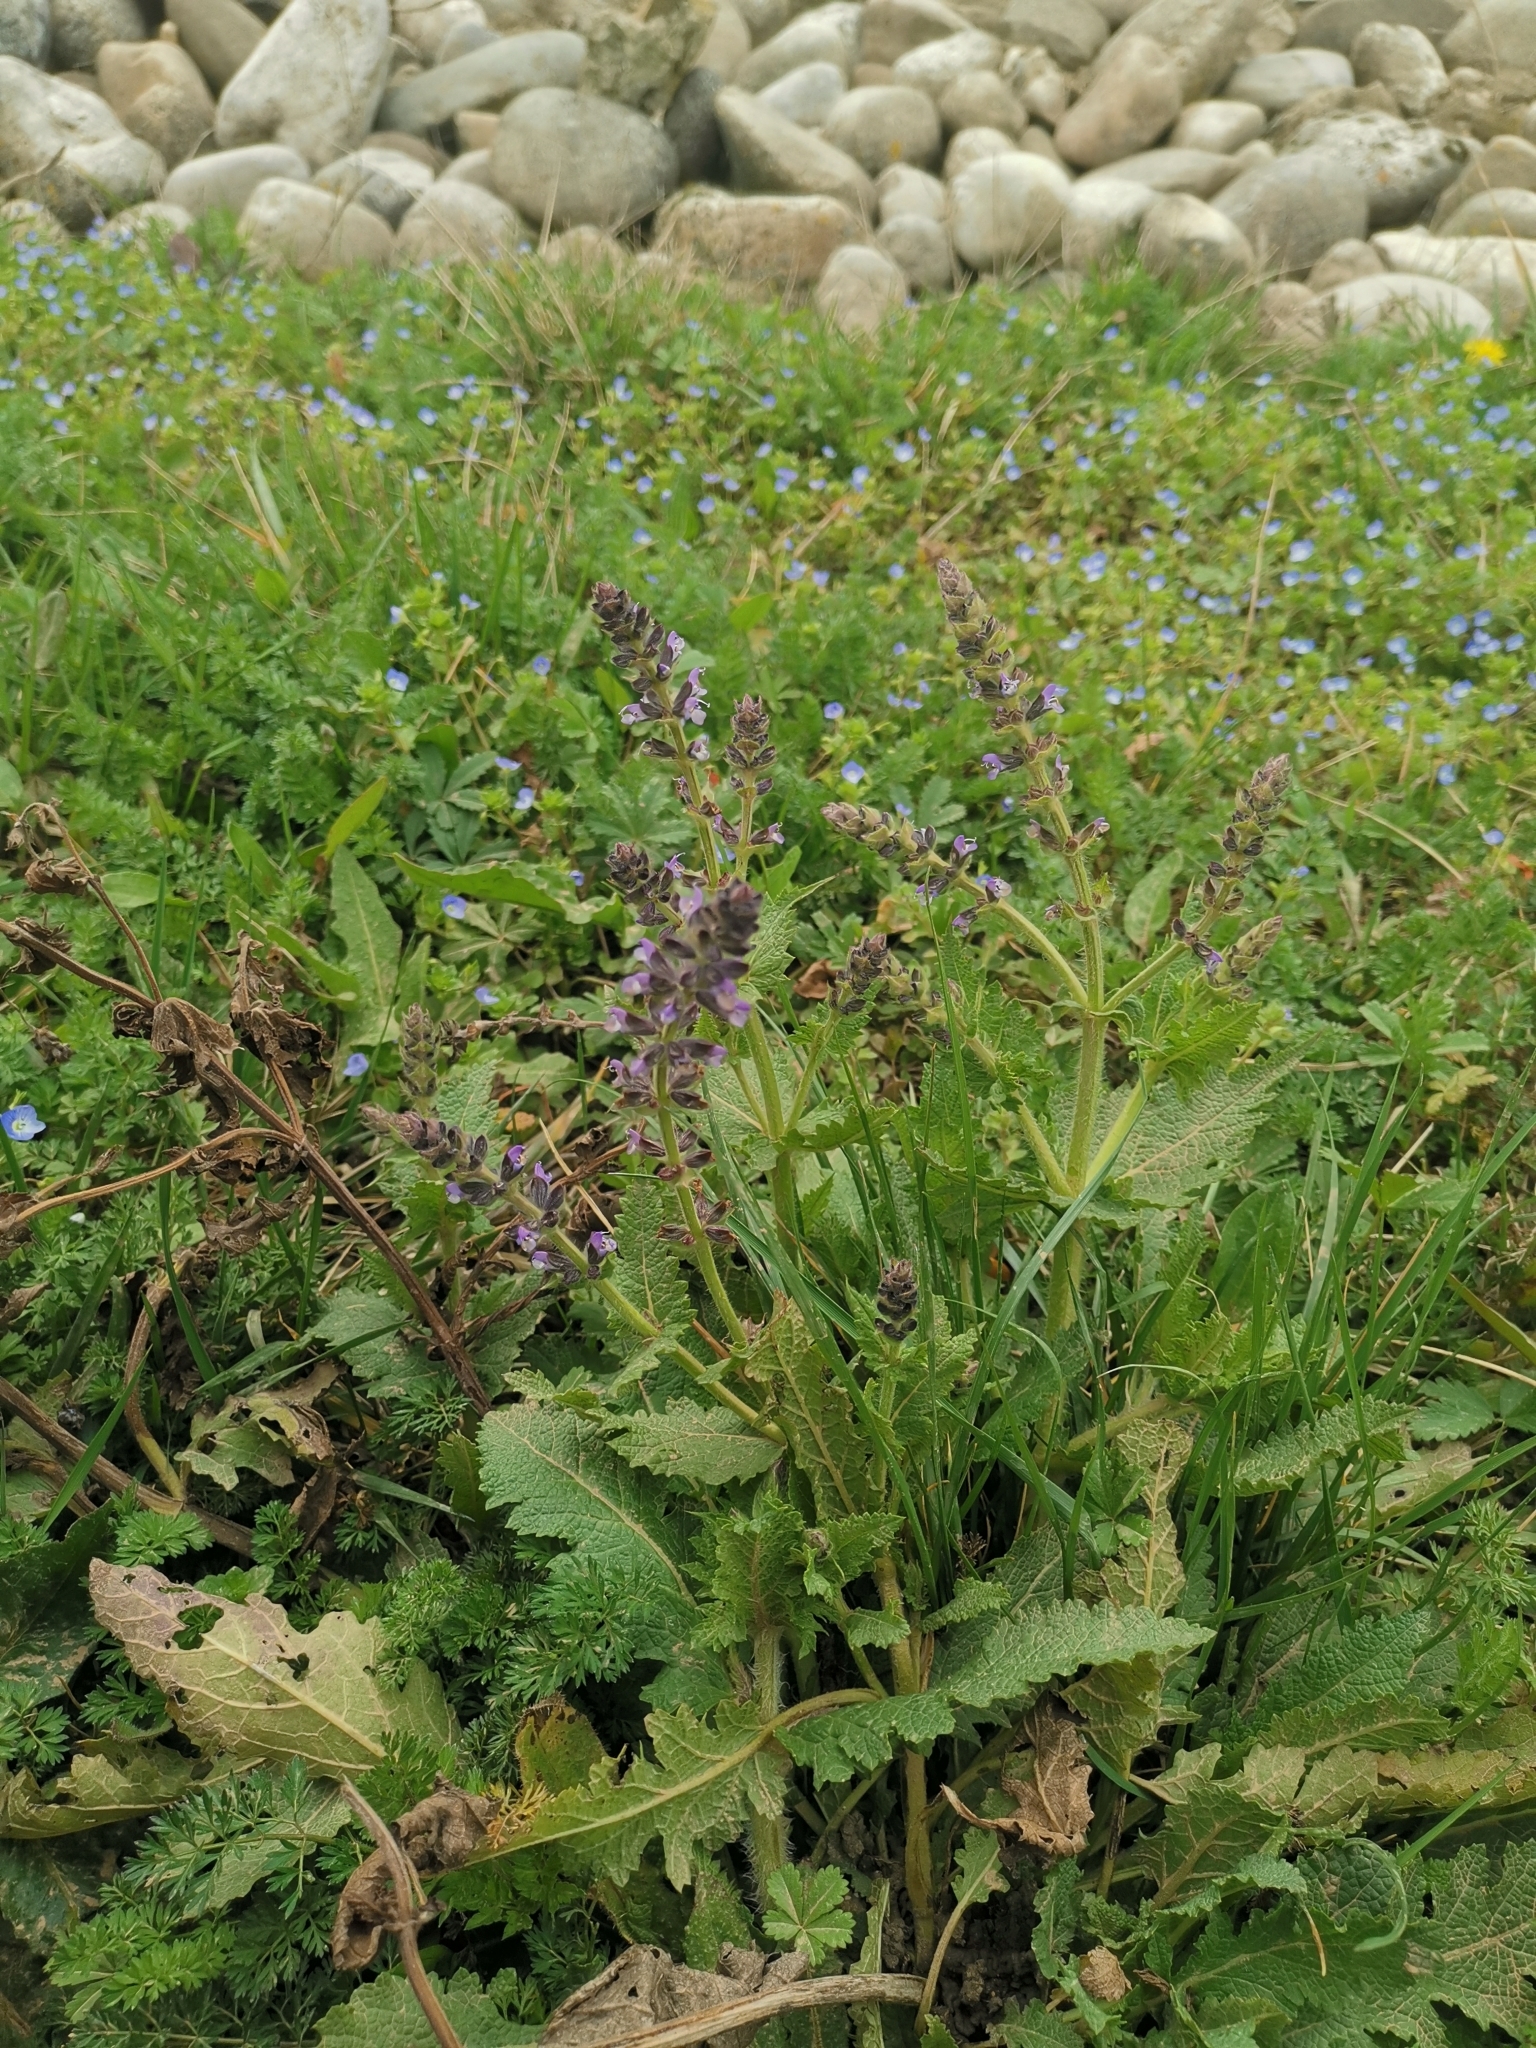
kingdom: Plantae
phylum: Tracheophyta
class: Magnoliopsida
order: Lamiales
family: Lamiaceae
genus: Salvia
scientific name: Salvia verbenaca
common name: Wild clary
